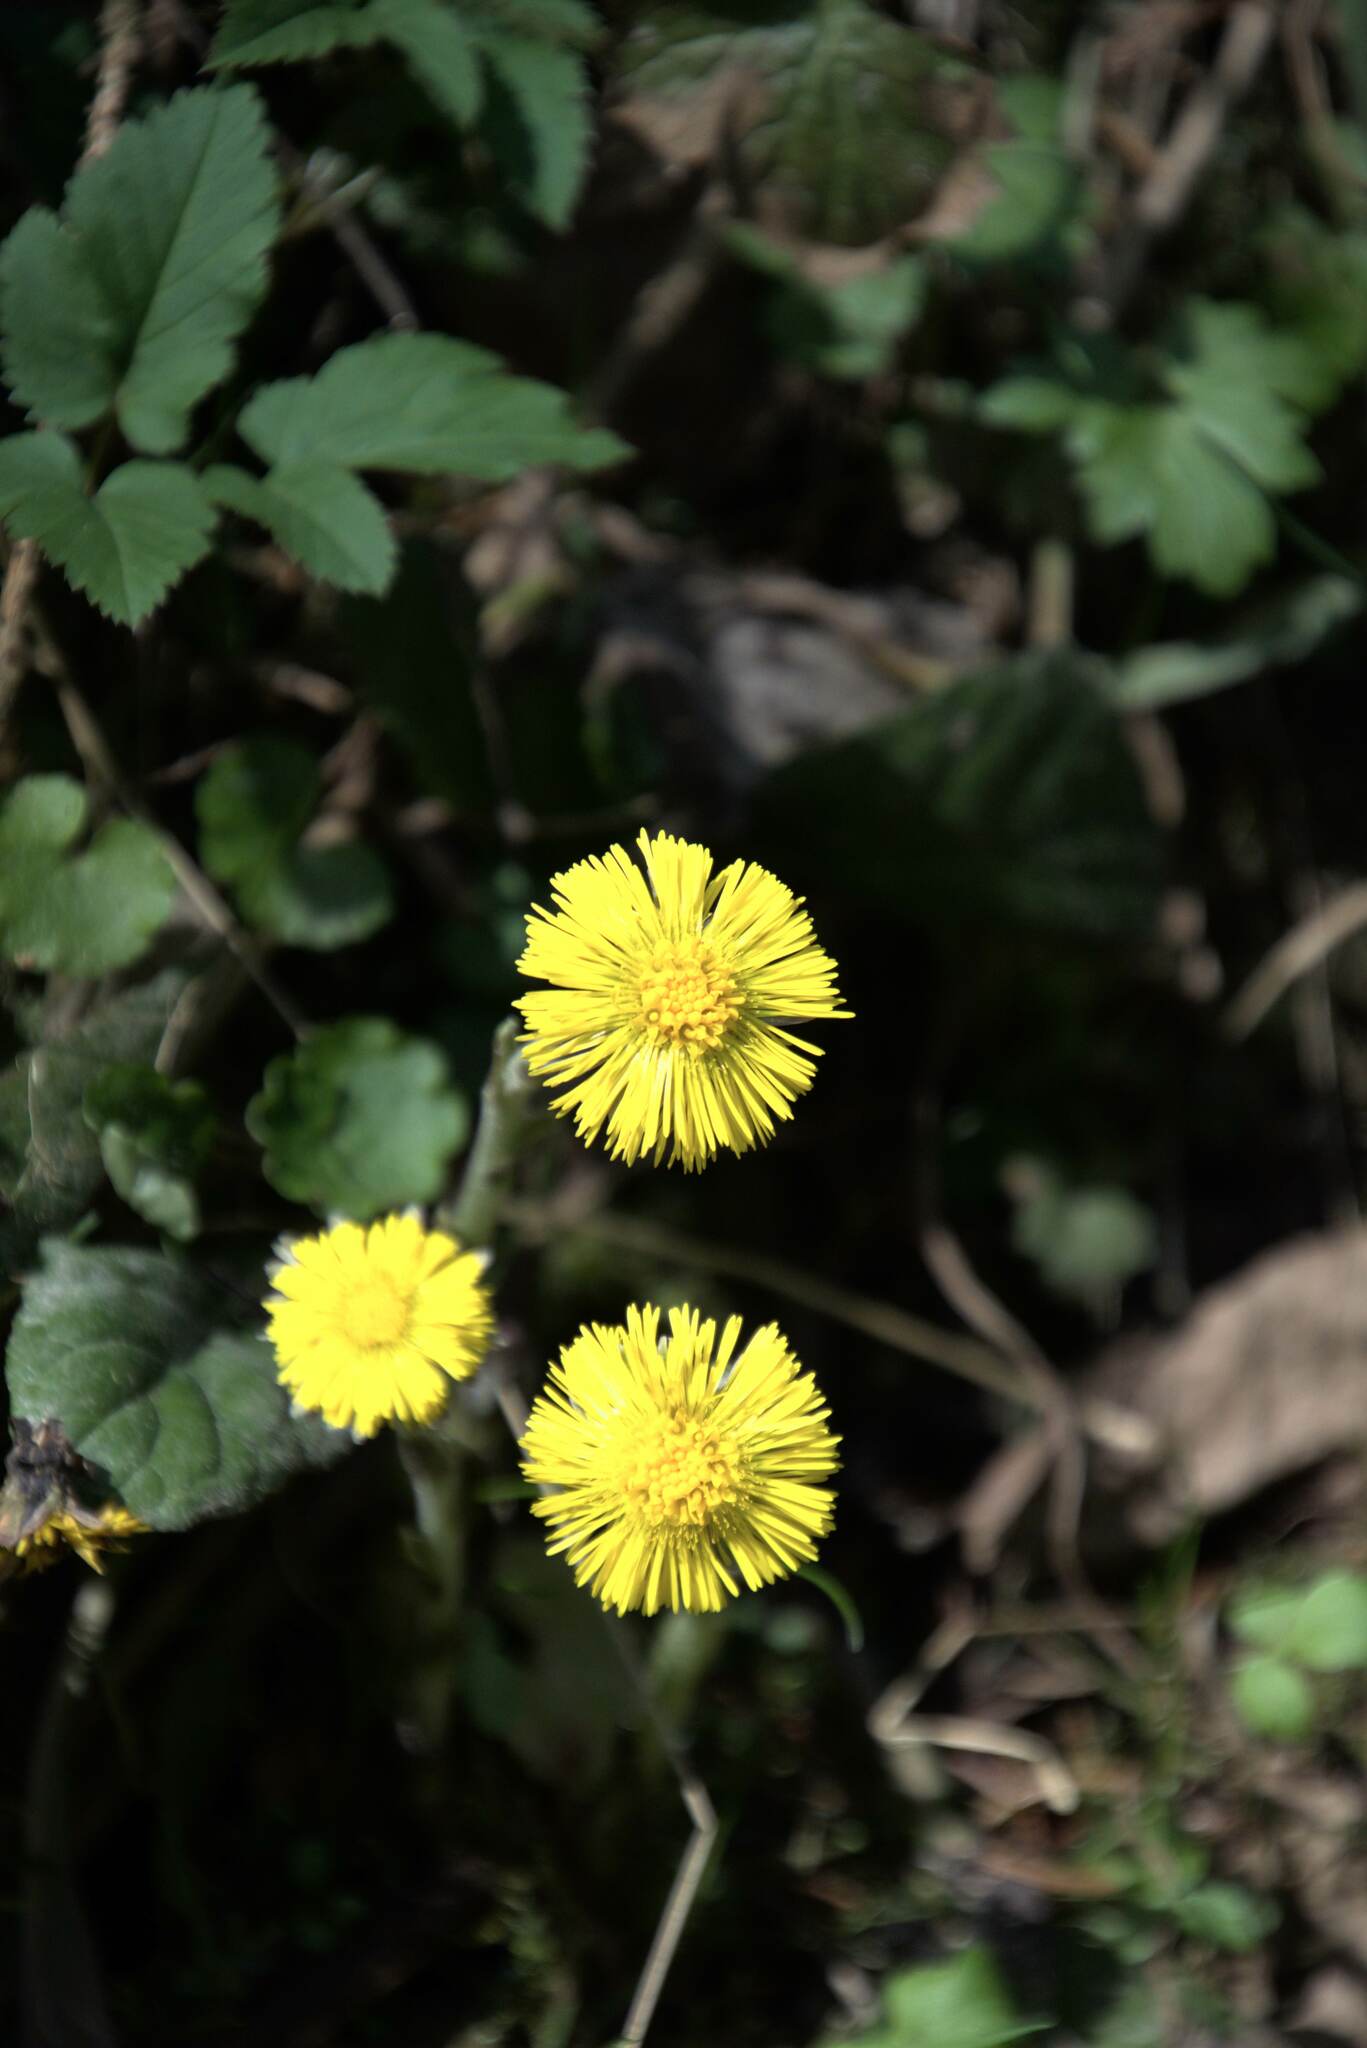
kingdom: Plantae
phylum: Tracheophyta
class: Magnoliopsida
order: Asterales
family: Asteraceae
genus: Tussilago
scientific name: Tussilago farfara
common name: Coltsfoot
